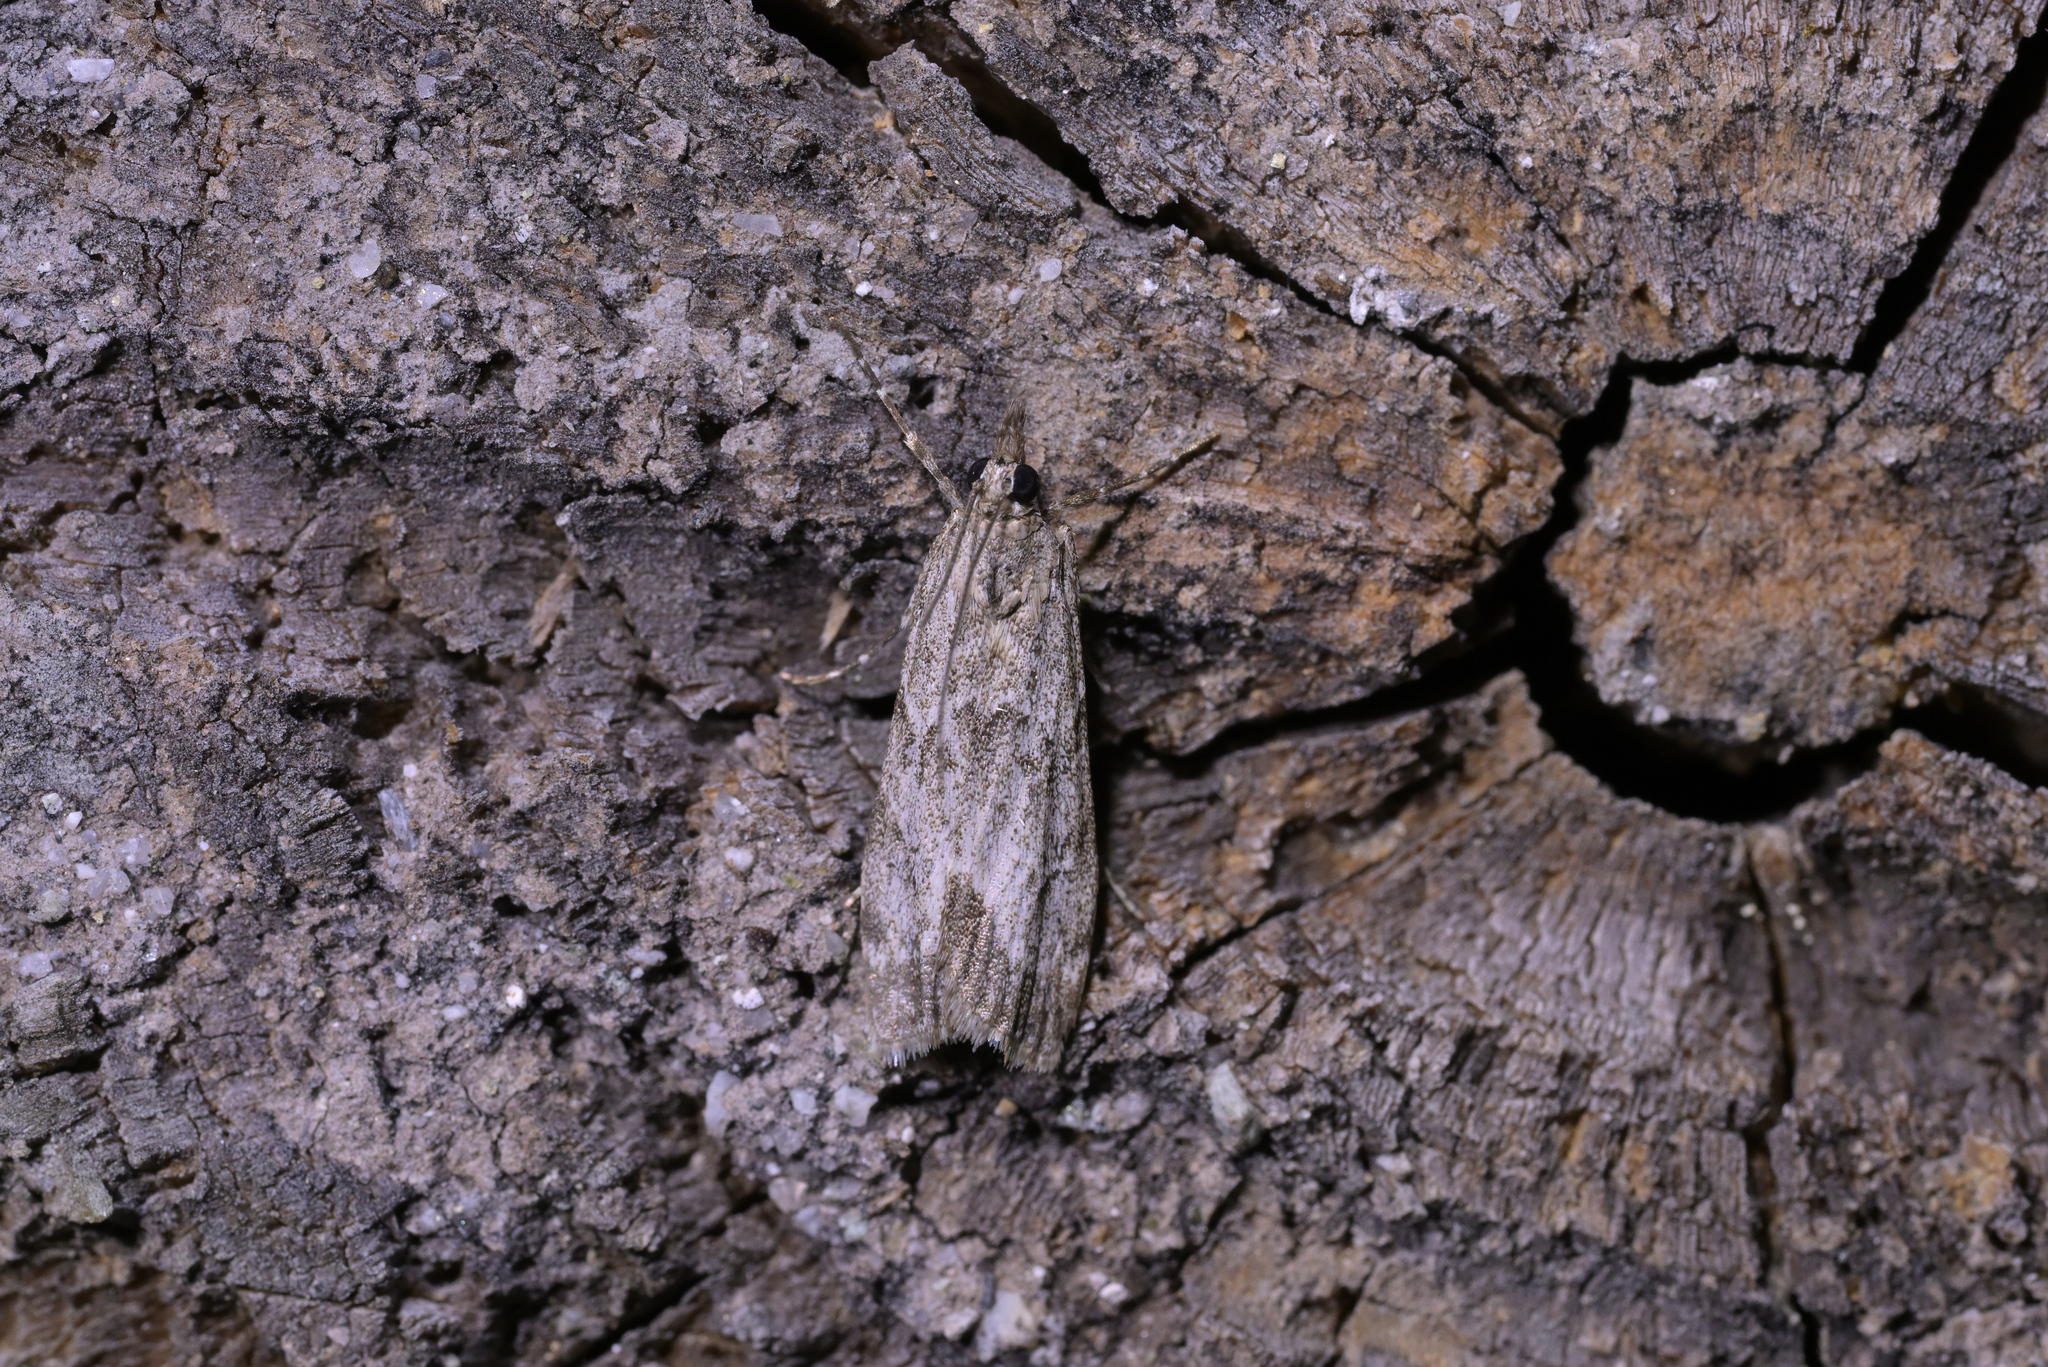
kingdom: Animalia
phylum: Arthropoda
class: Insecta
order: Lepidoptera
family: Crambidae
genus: Eudonia
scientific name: Eudonia rakaiensis
